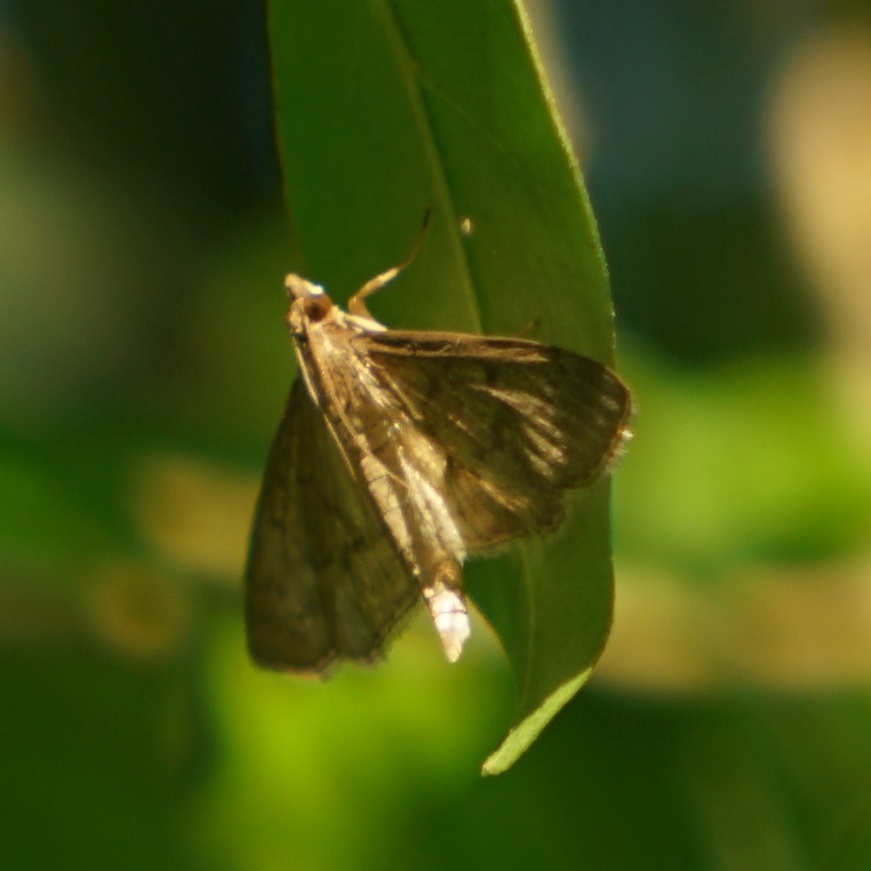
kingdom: Animalia
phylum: Arthropoda
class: Insecta
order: Lepidoptera
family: Crambidae
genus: Herpetogramma
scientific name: Herpetogramma licarsisalis
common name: Grass webworm
